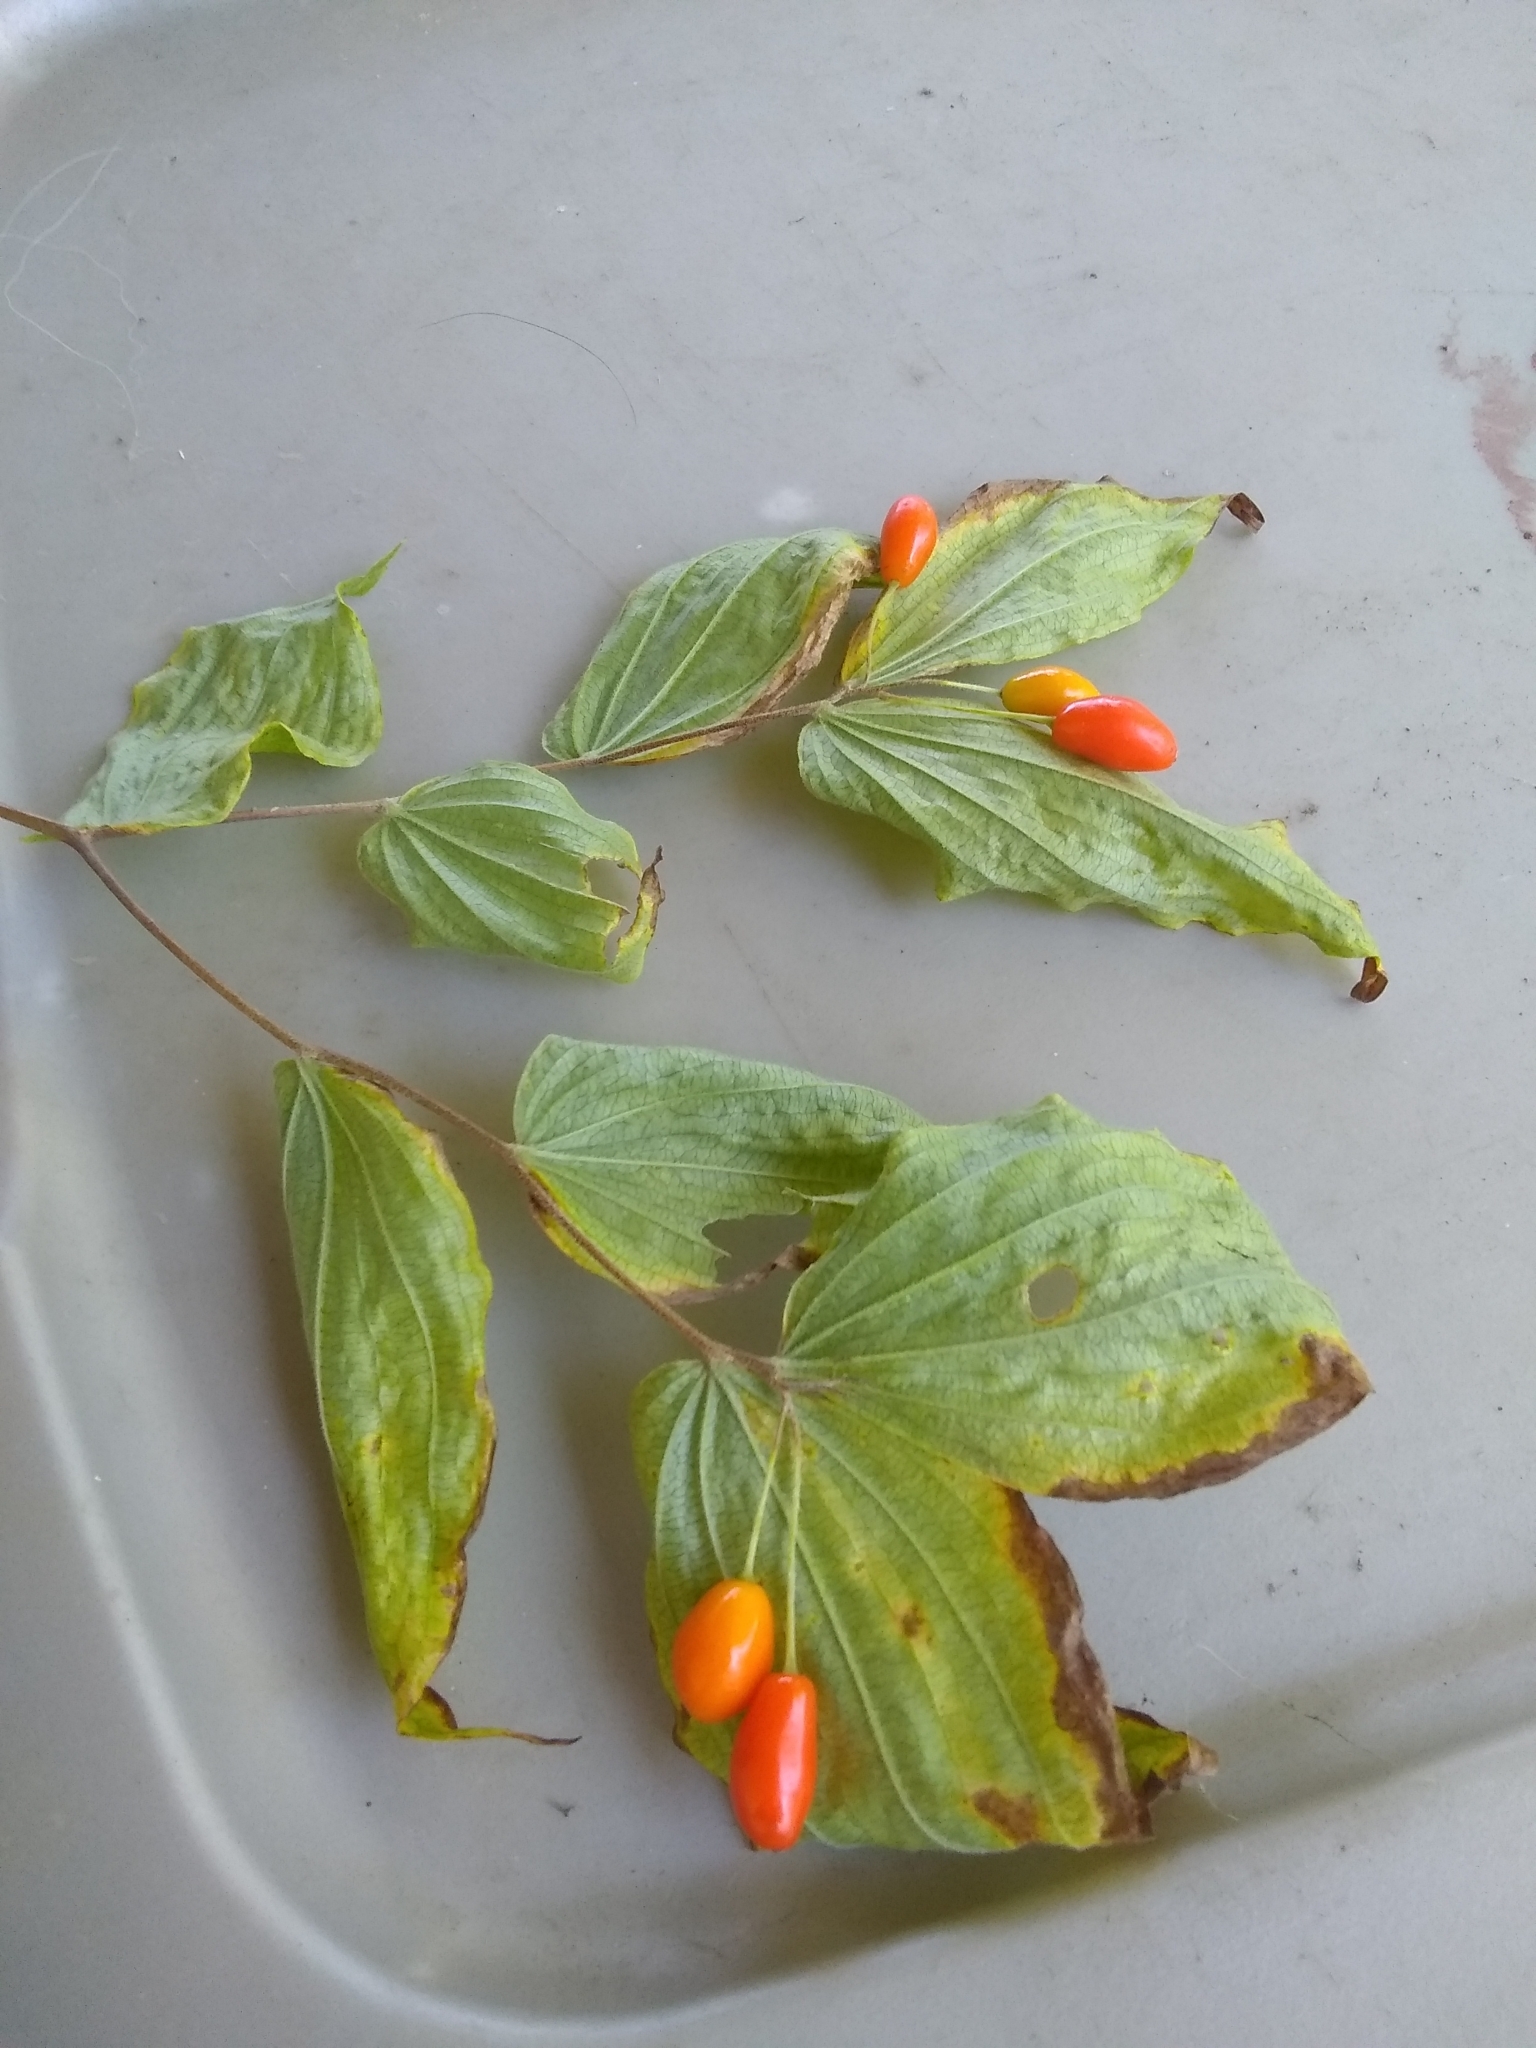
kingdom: Plantae
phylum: Tracheophyta
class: Liliopsida
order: Liliales
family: Liliaceae
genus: Prosartes
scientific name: Prosartes lanuginosa
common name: Hairy mandarin
